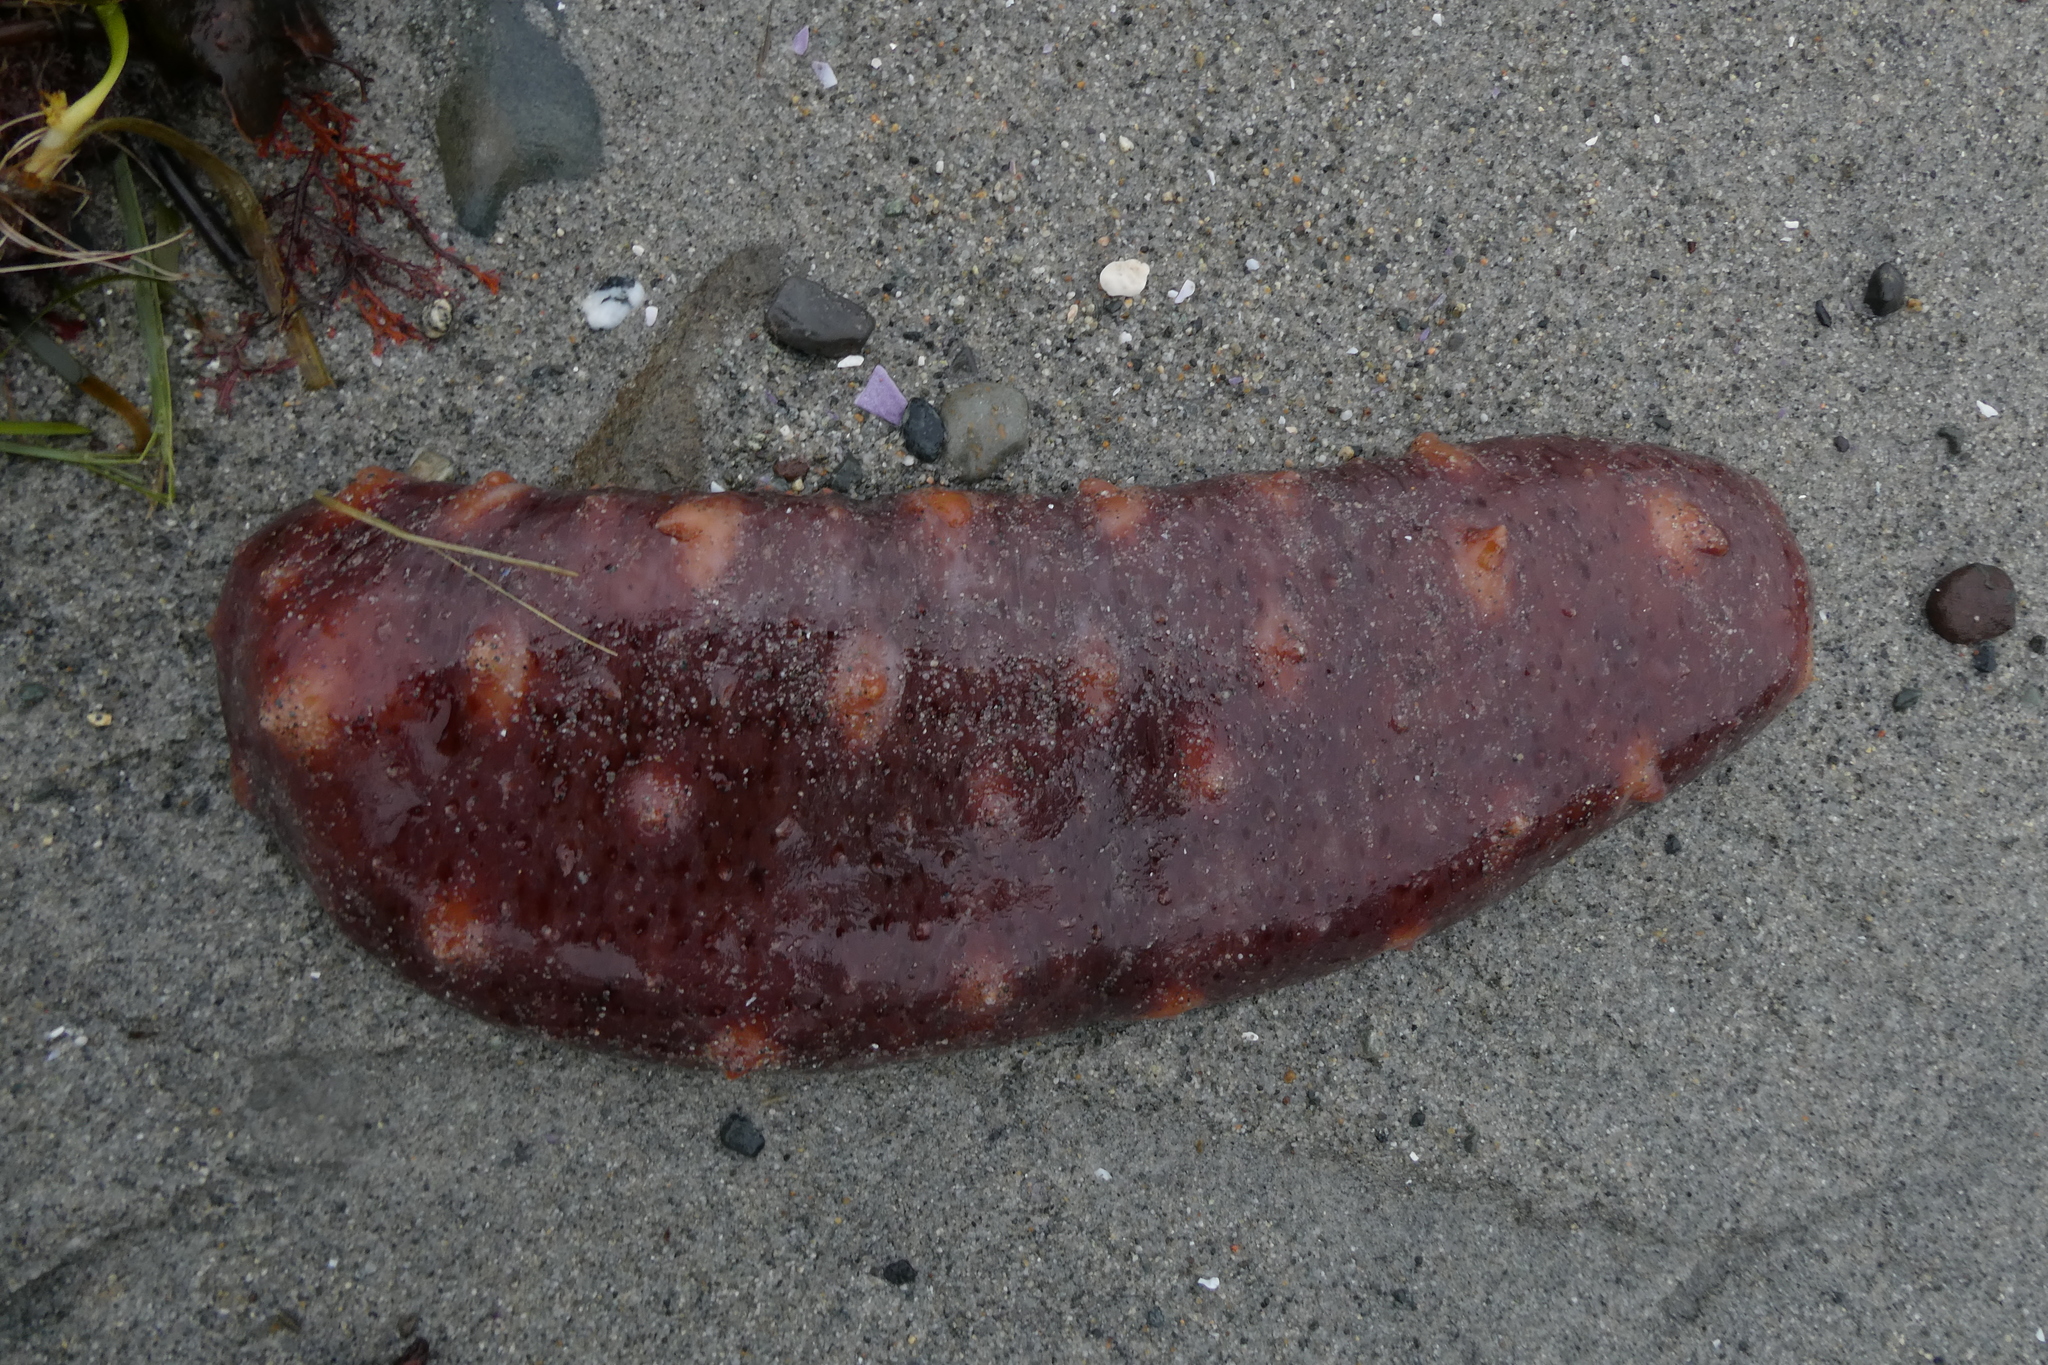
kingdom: Animalia
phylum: Echinodermata
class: Holothuroidea
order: Synallactida
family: Stichopodidae
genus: Apostichopus
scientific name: Apostichopus californicus
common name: California sea cucumber
